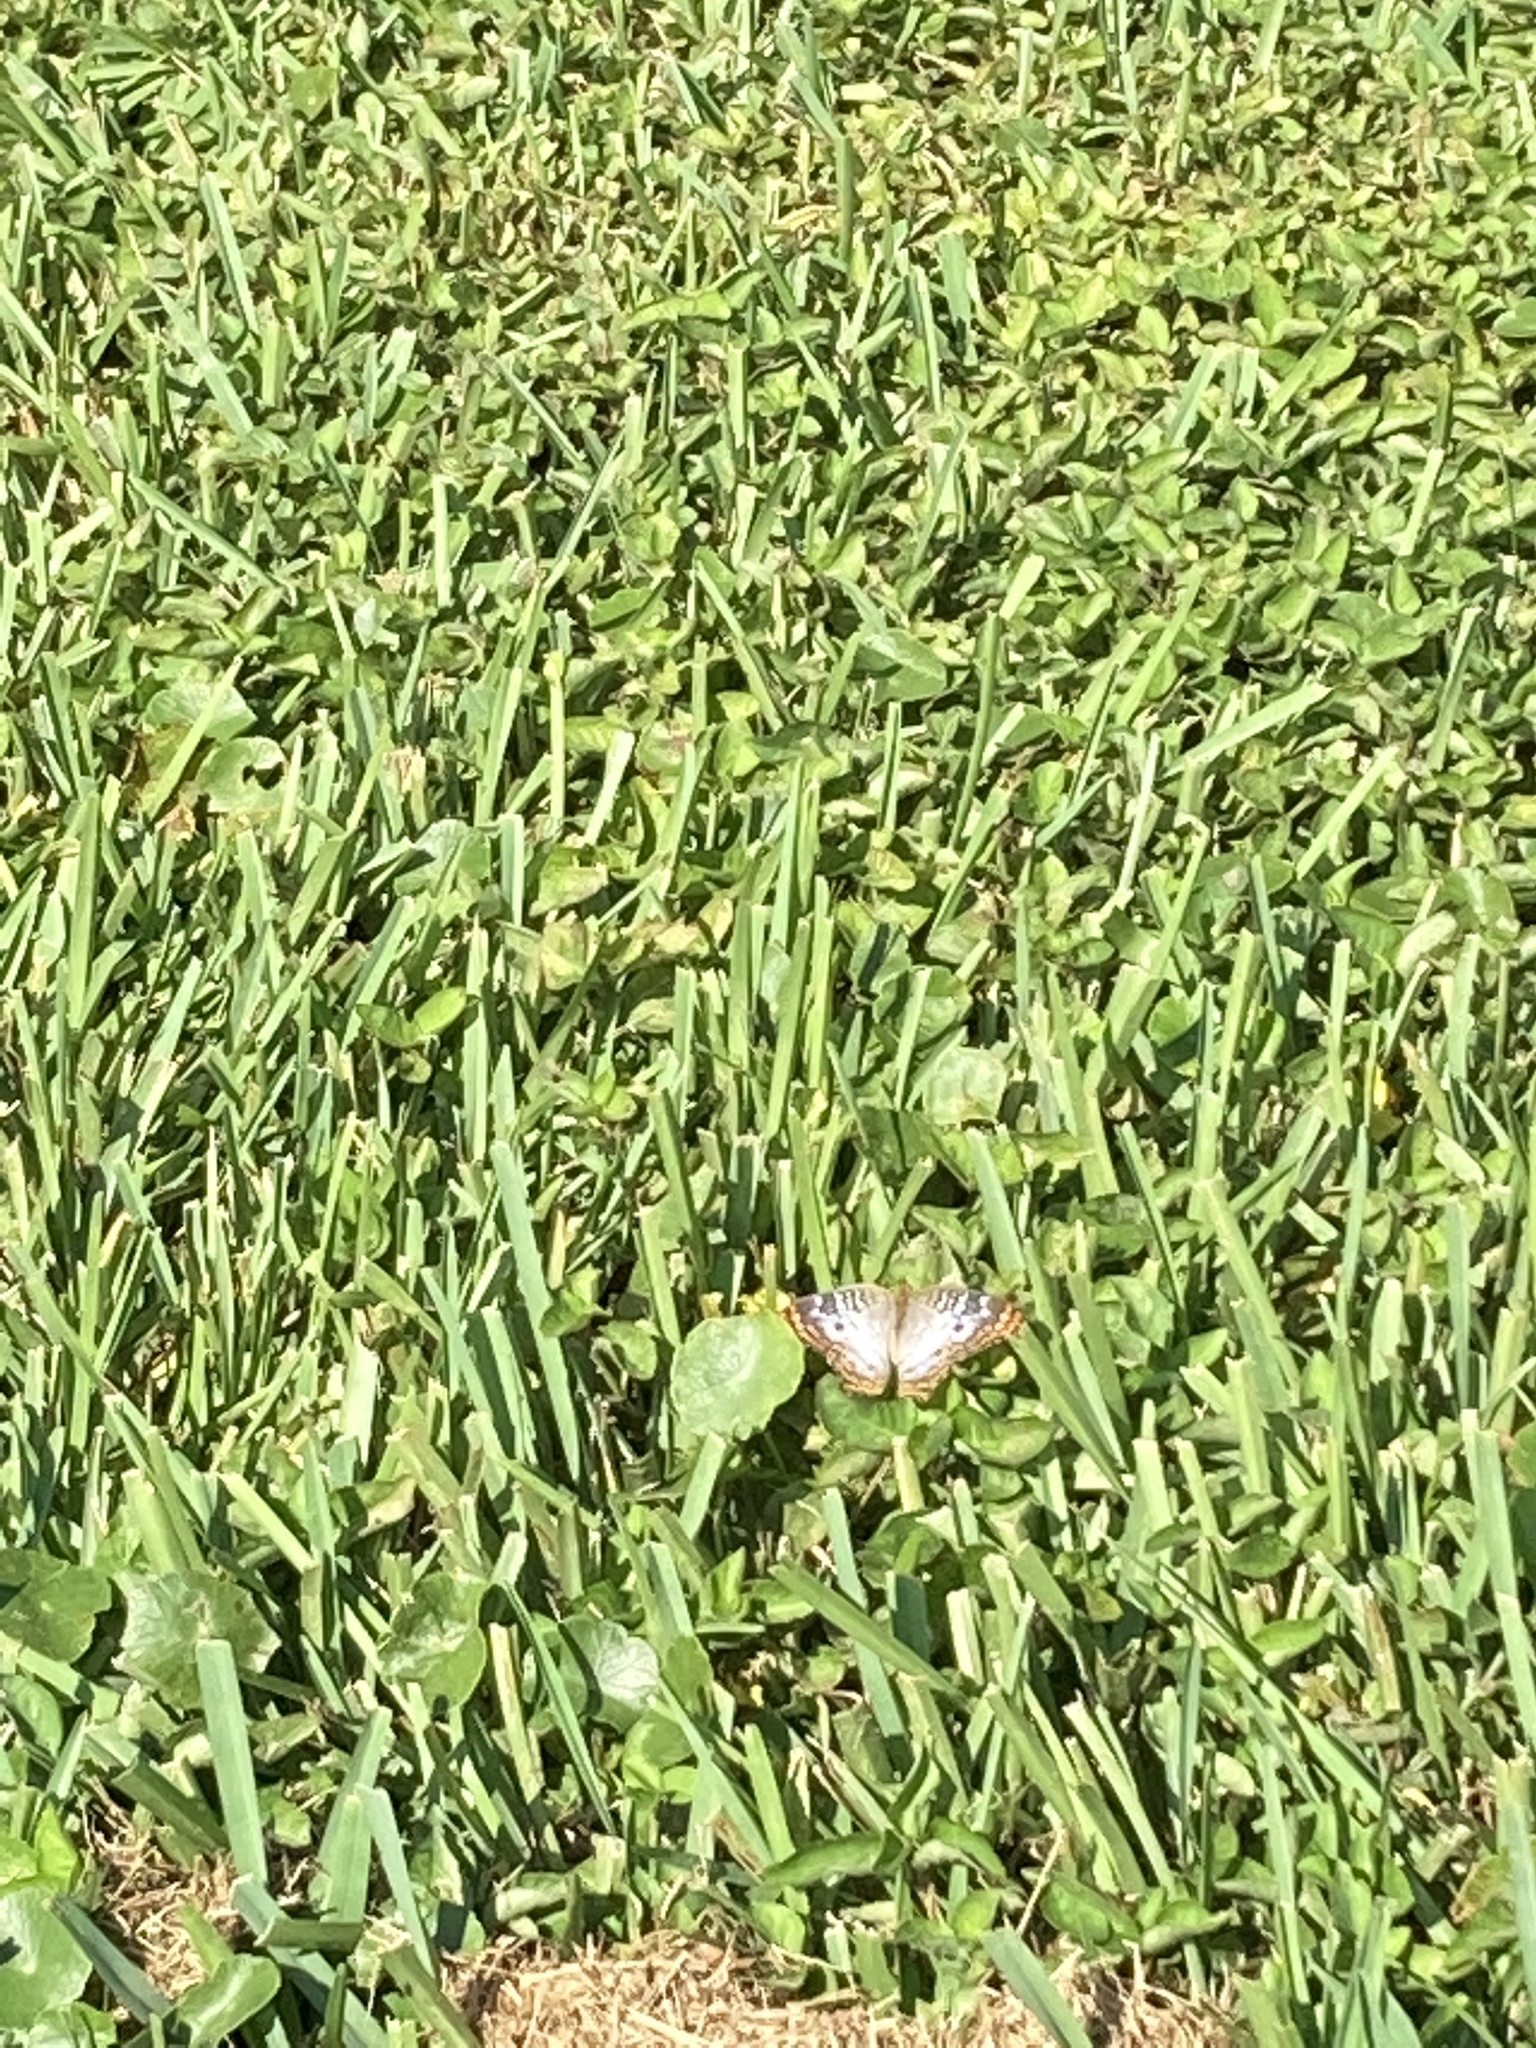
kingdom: Animalia
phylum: Arthropoda
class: Insecta
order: Lepidoptera
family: Nymphalidae
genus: Anartia
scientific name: Anartia jatrophae
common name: White peacock
